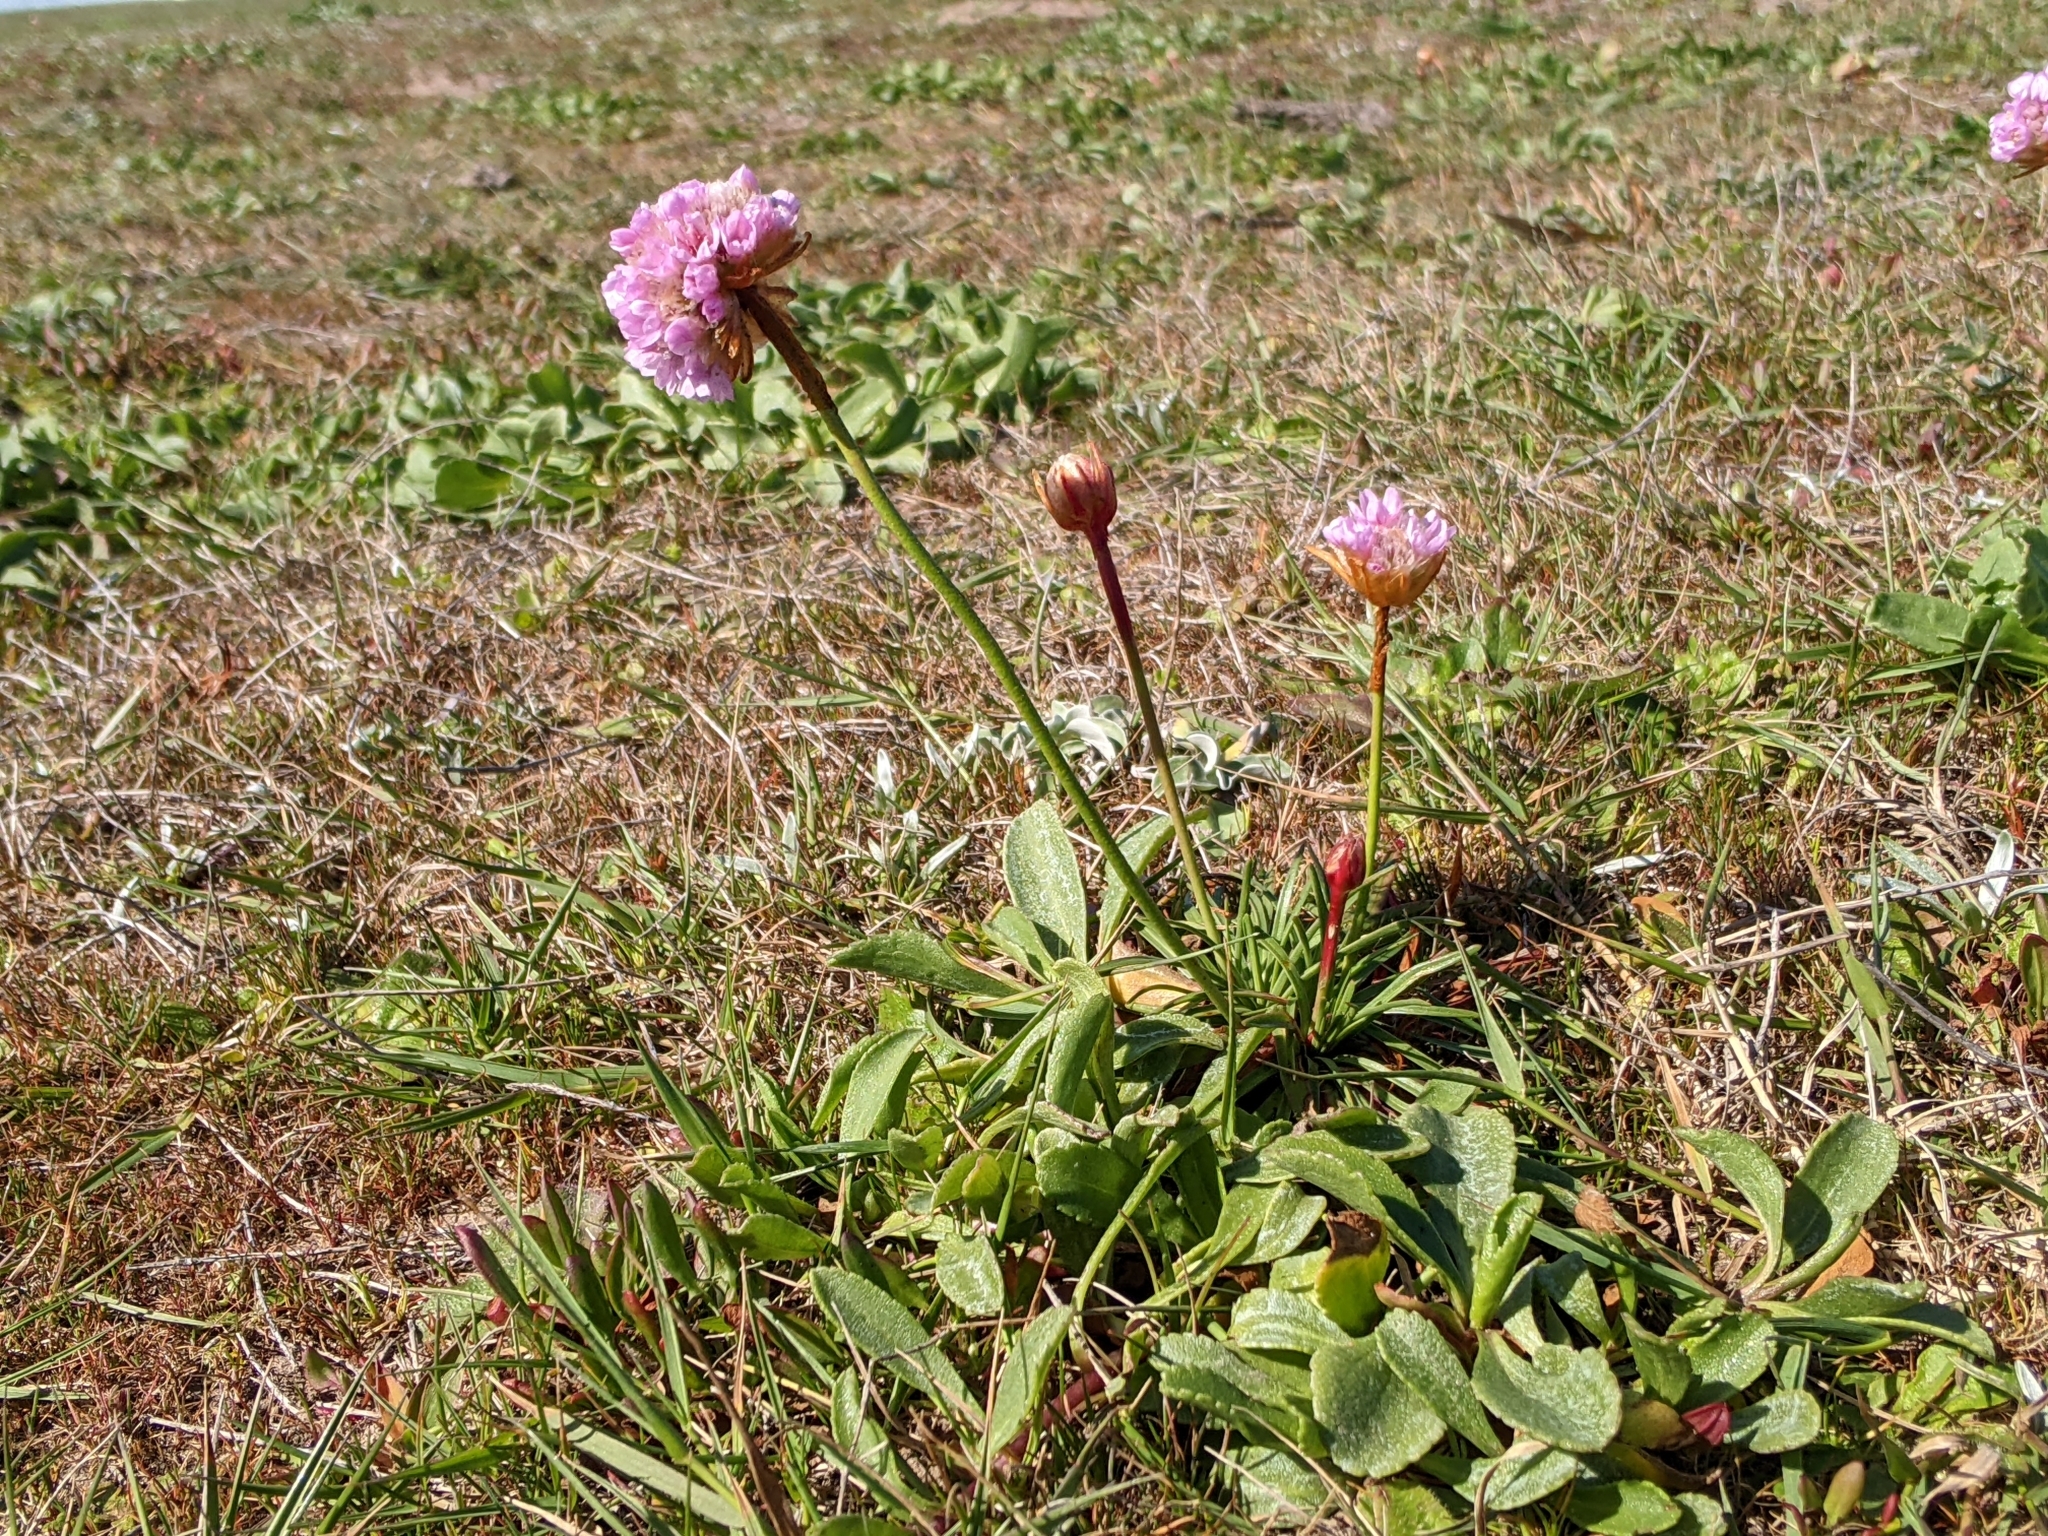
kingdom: Plantae
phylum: Tracheophyta
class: Magnoliopsida
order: Caryophyllales
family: Plumbaginaceae
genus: Armeria
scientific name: Armeria maritima
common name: Thrift
